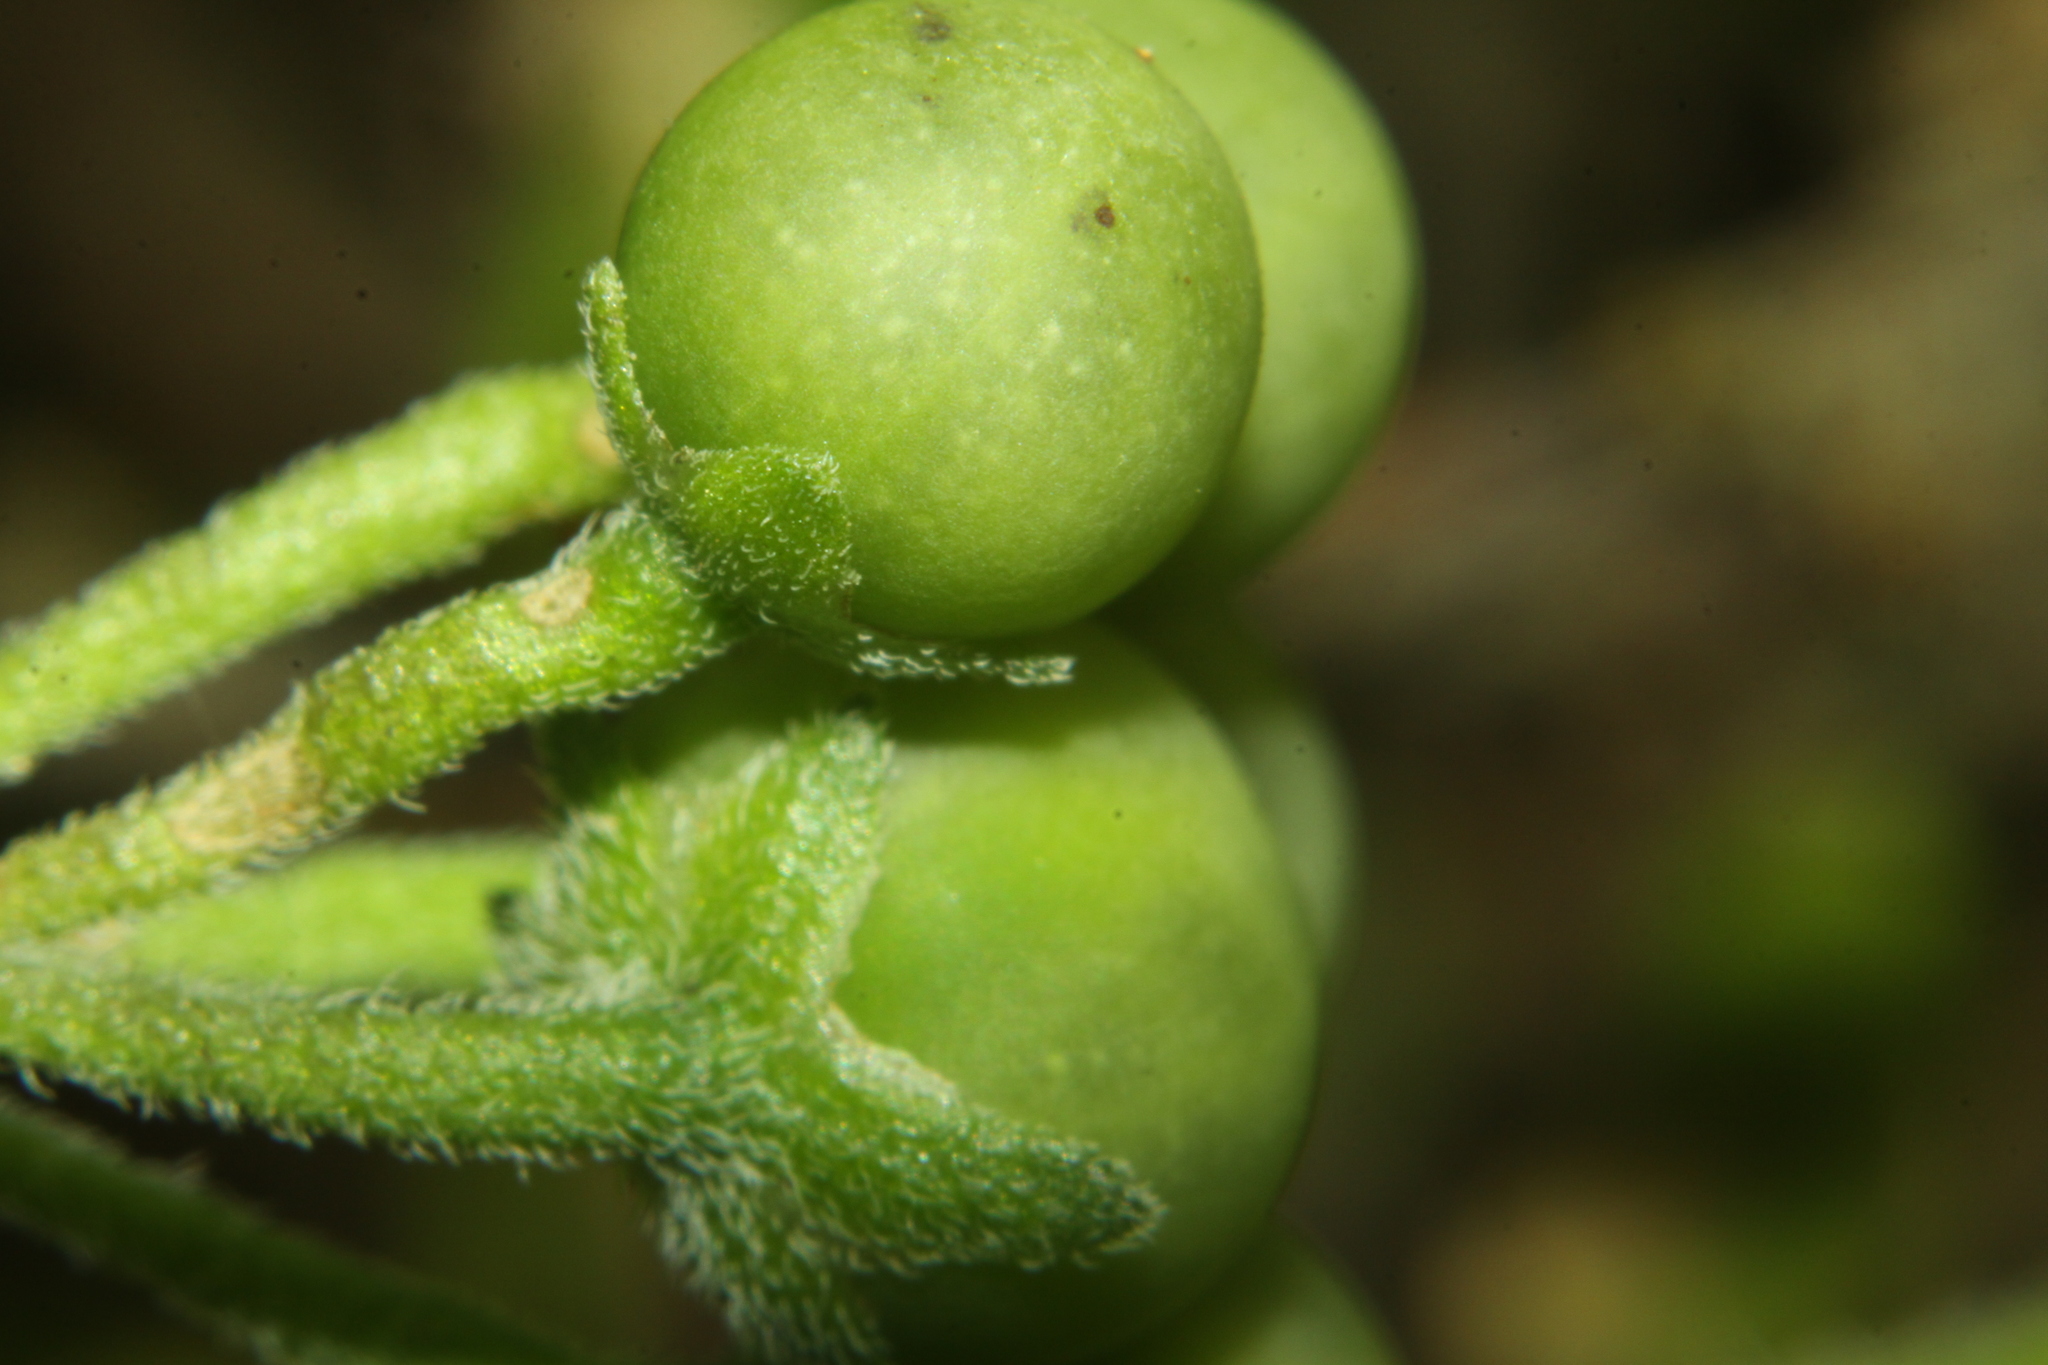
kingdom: Plantae
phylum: Tracheophyta
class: Magnoliopsida
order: Solanales
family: Solanaceae
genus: Solanum
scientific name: Solanum chenopodioides
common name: Tall nightshade
